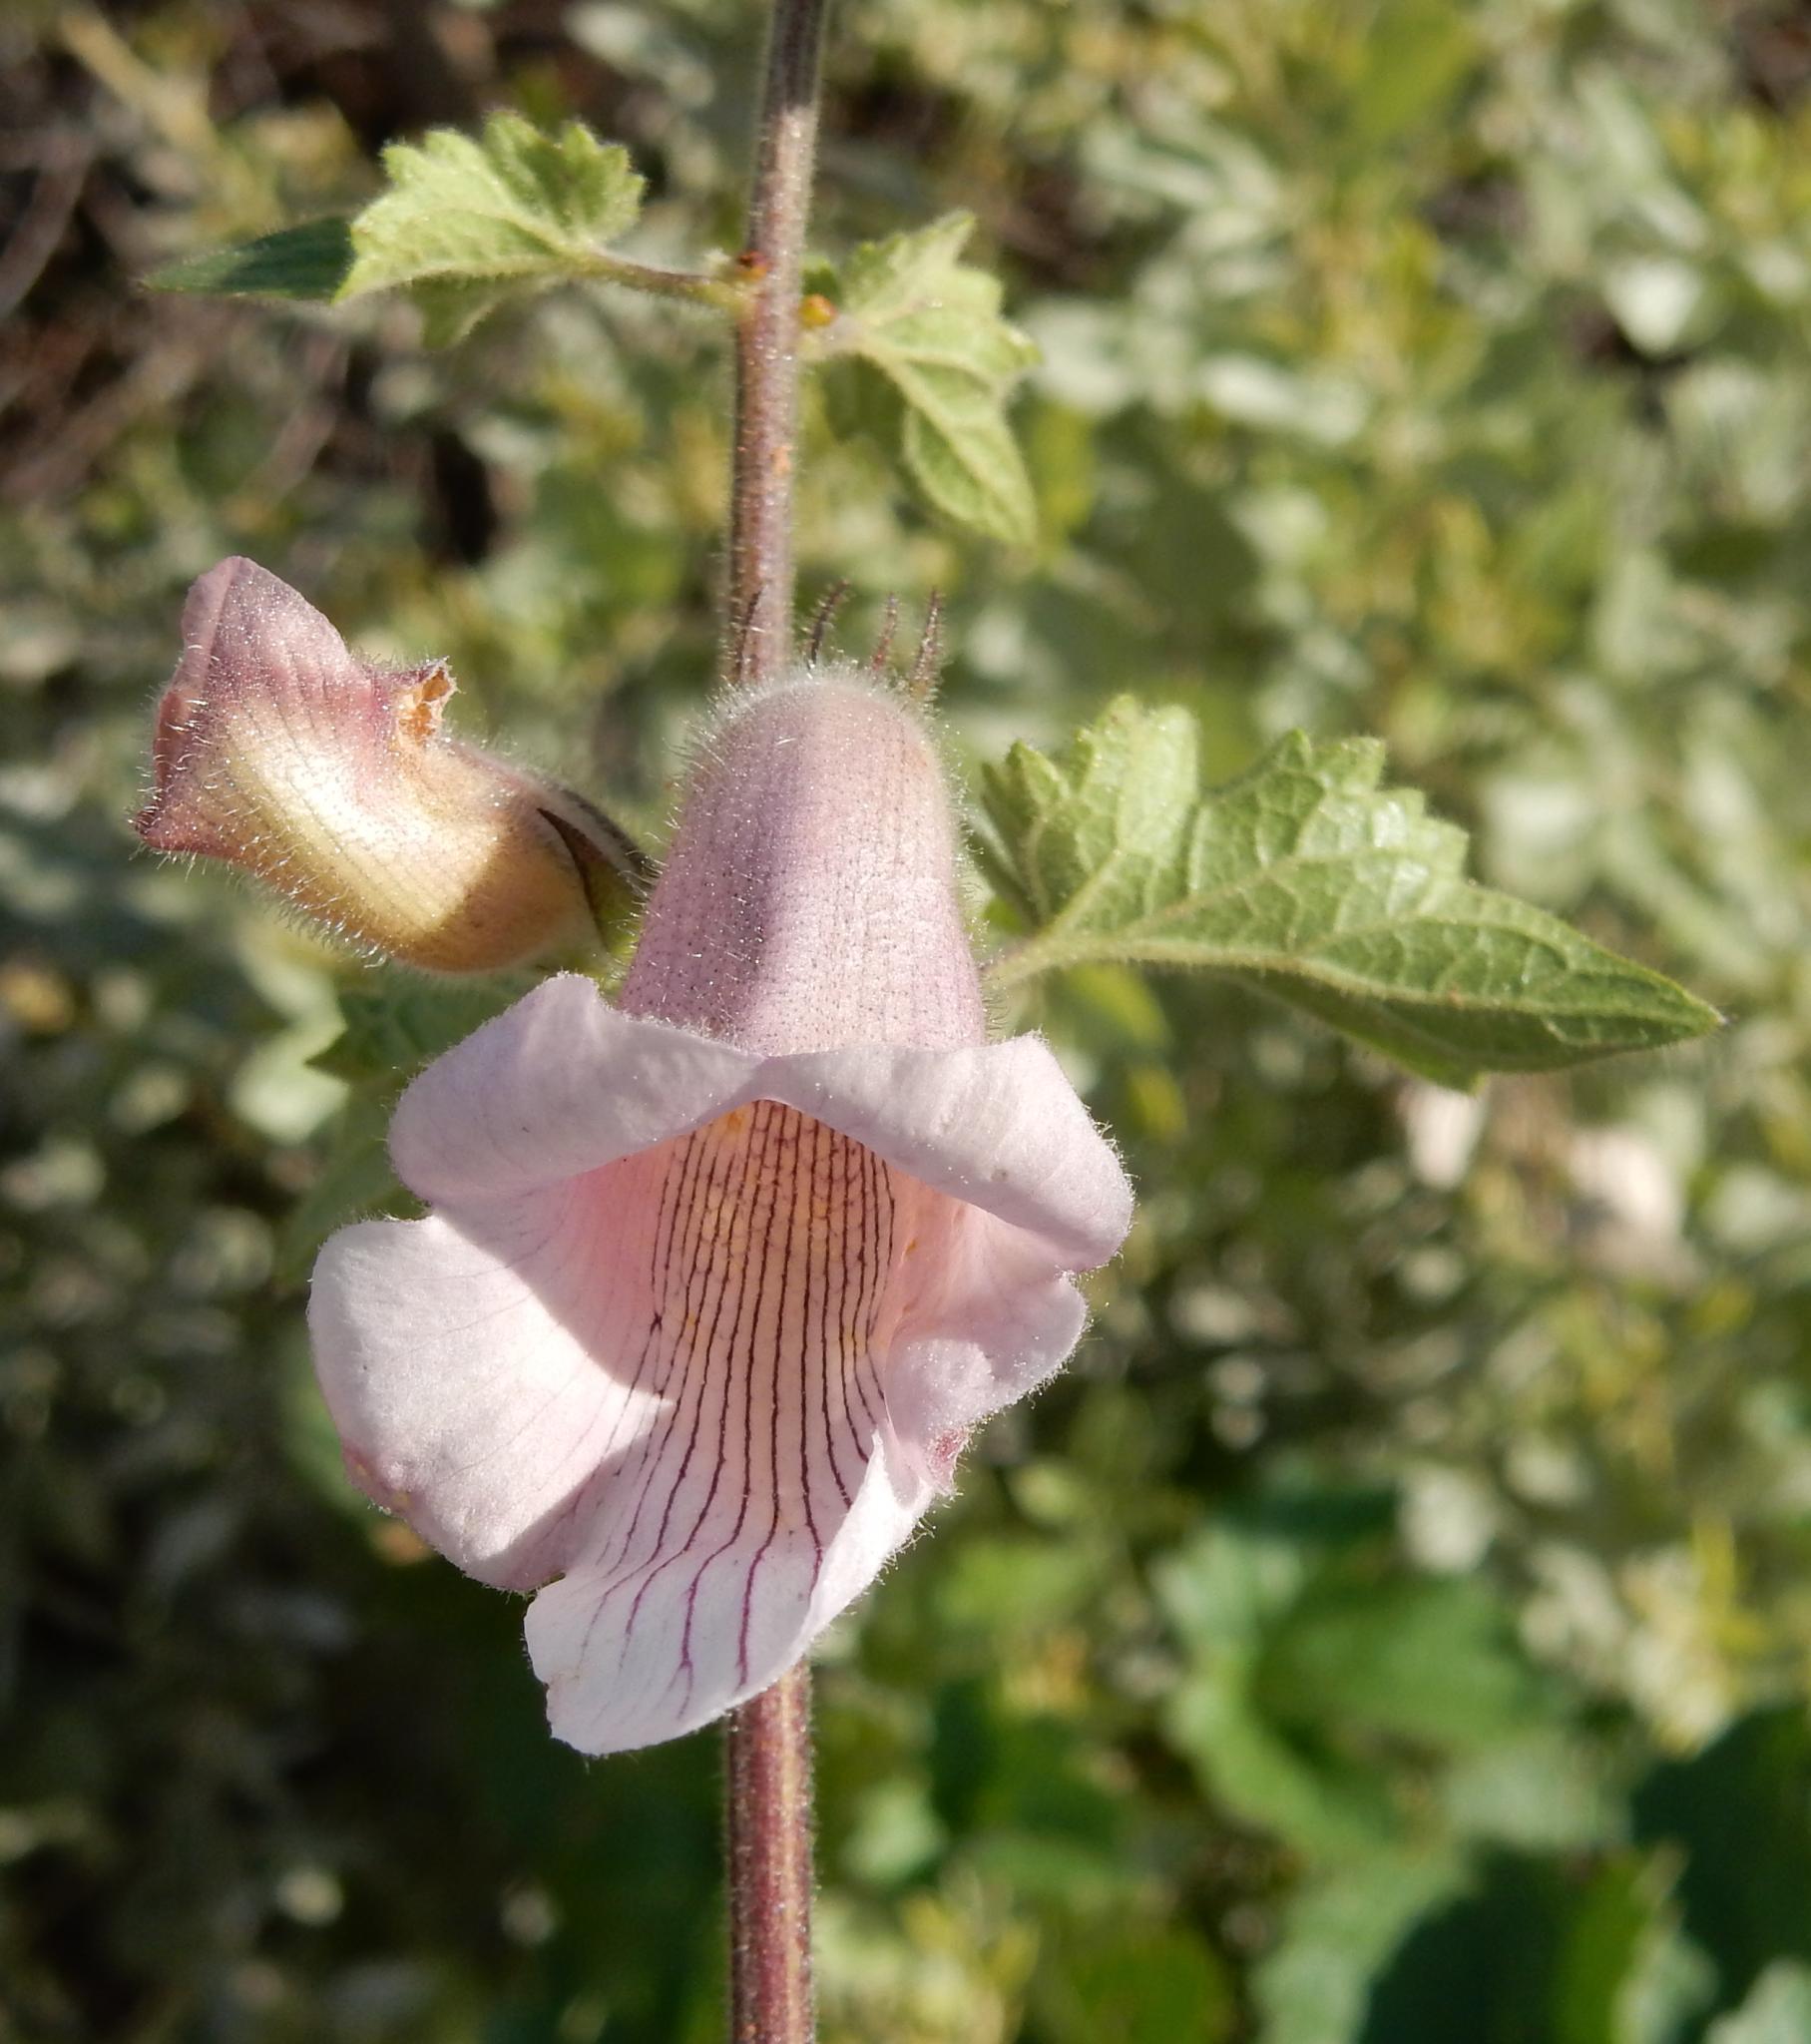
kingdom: Plantae
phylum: Tracheophyta
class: Magnoliopsida
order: Lamiales
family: Pedaliaceae
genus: Sesamum
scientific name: Sesamum trilobum
